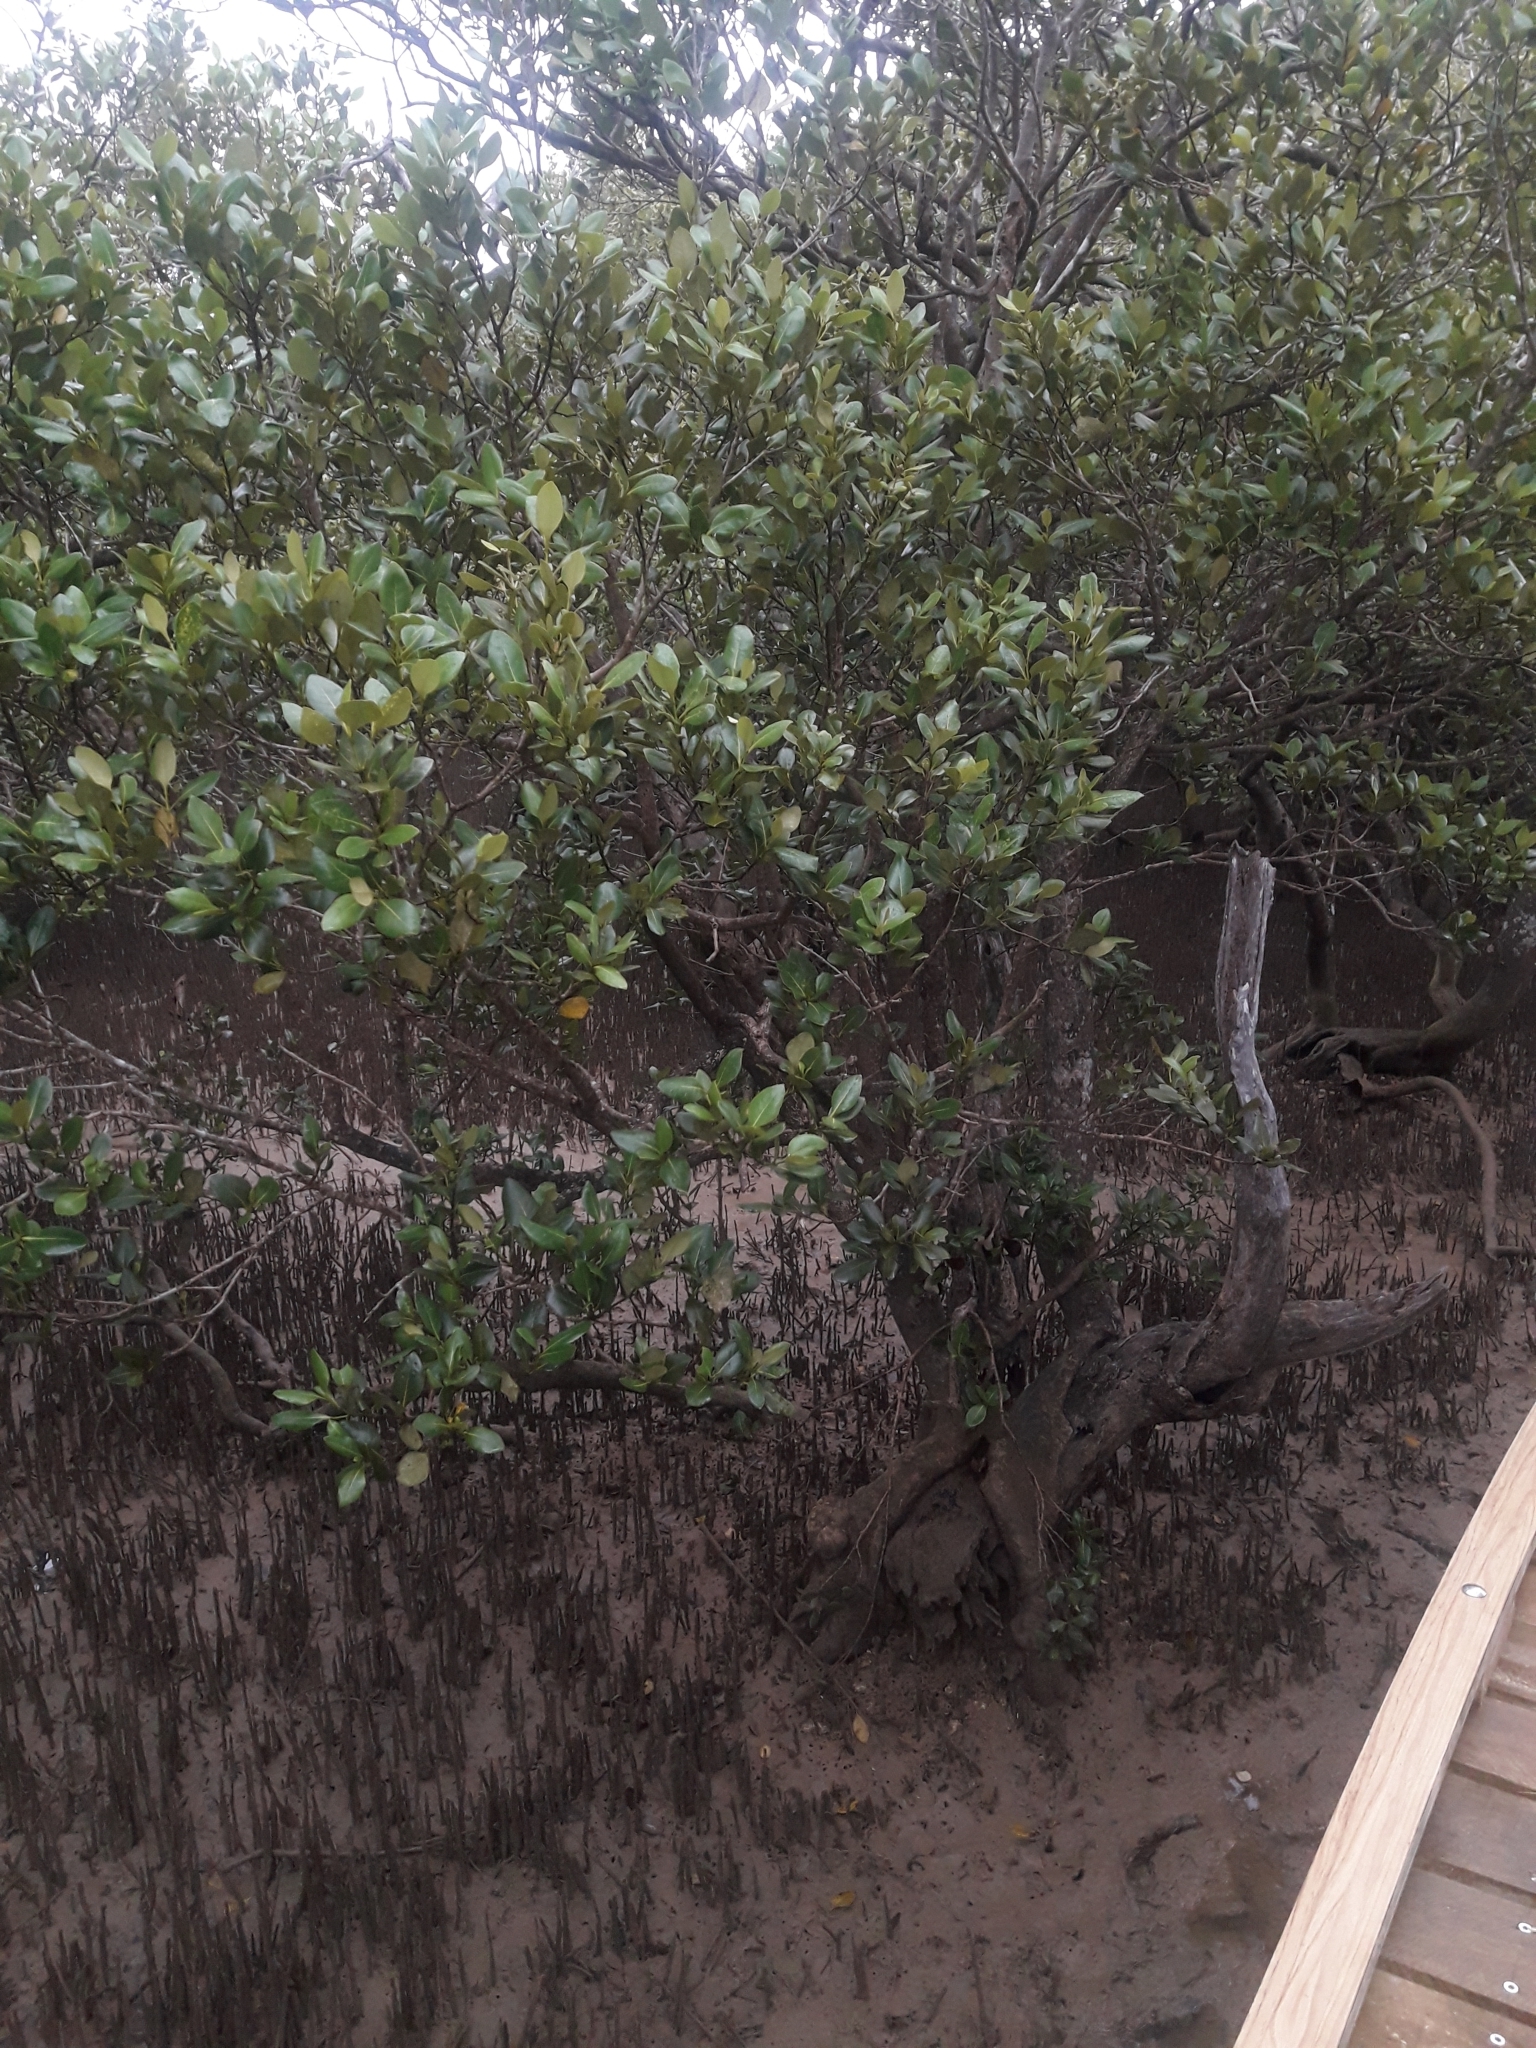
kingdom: Plantae
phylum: Tracheophyta
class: Magnoliopsida
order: Lamiales
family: Acanthaceae
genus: Avicennia
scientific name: Avicennia marina
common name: Gray mangrove
